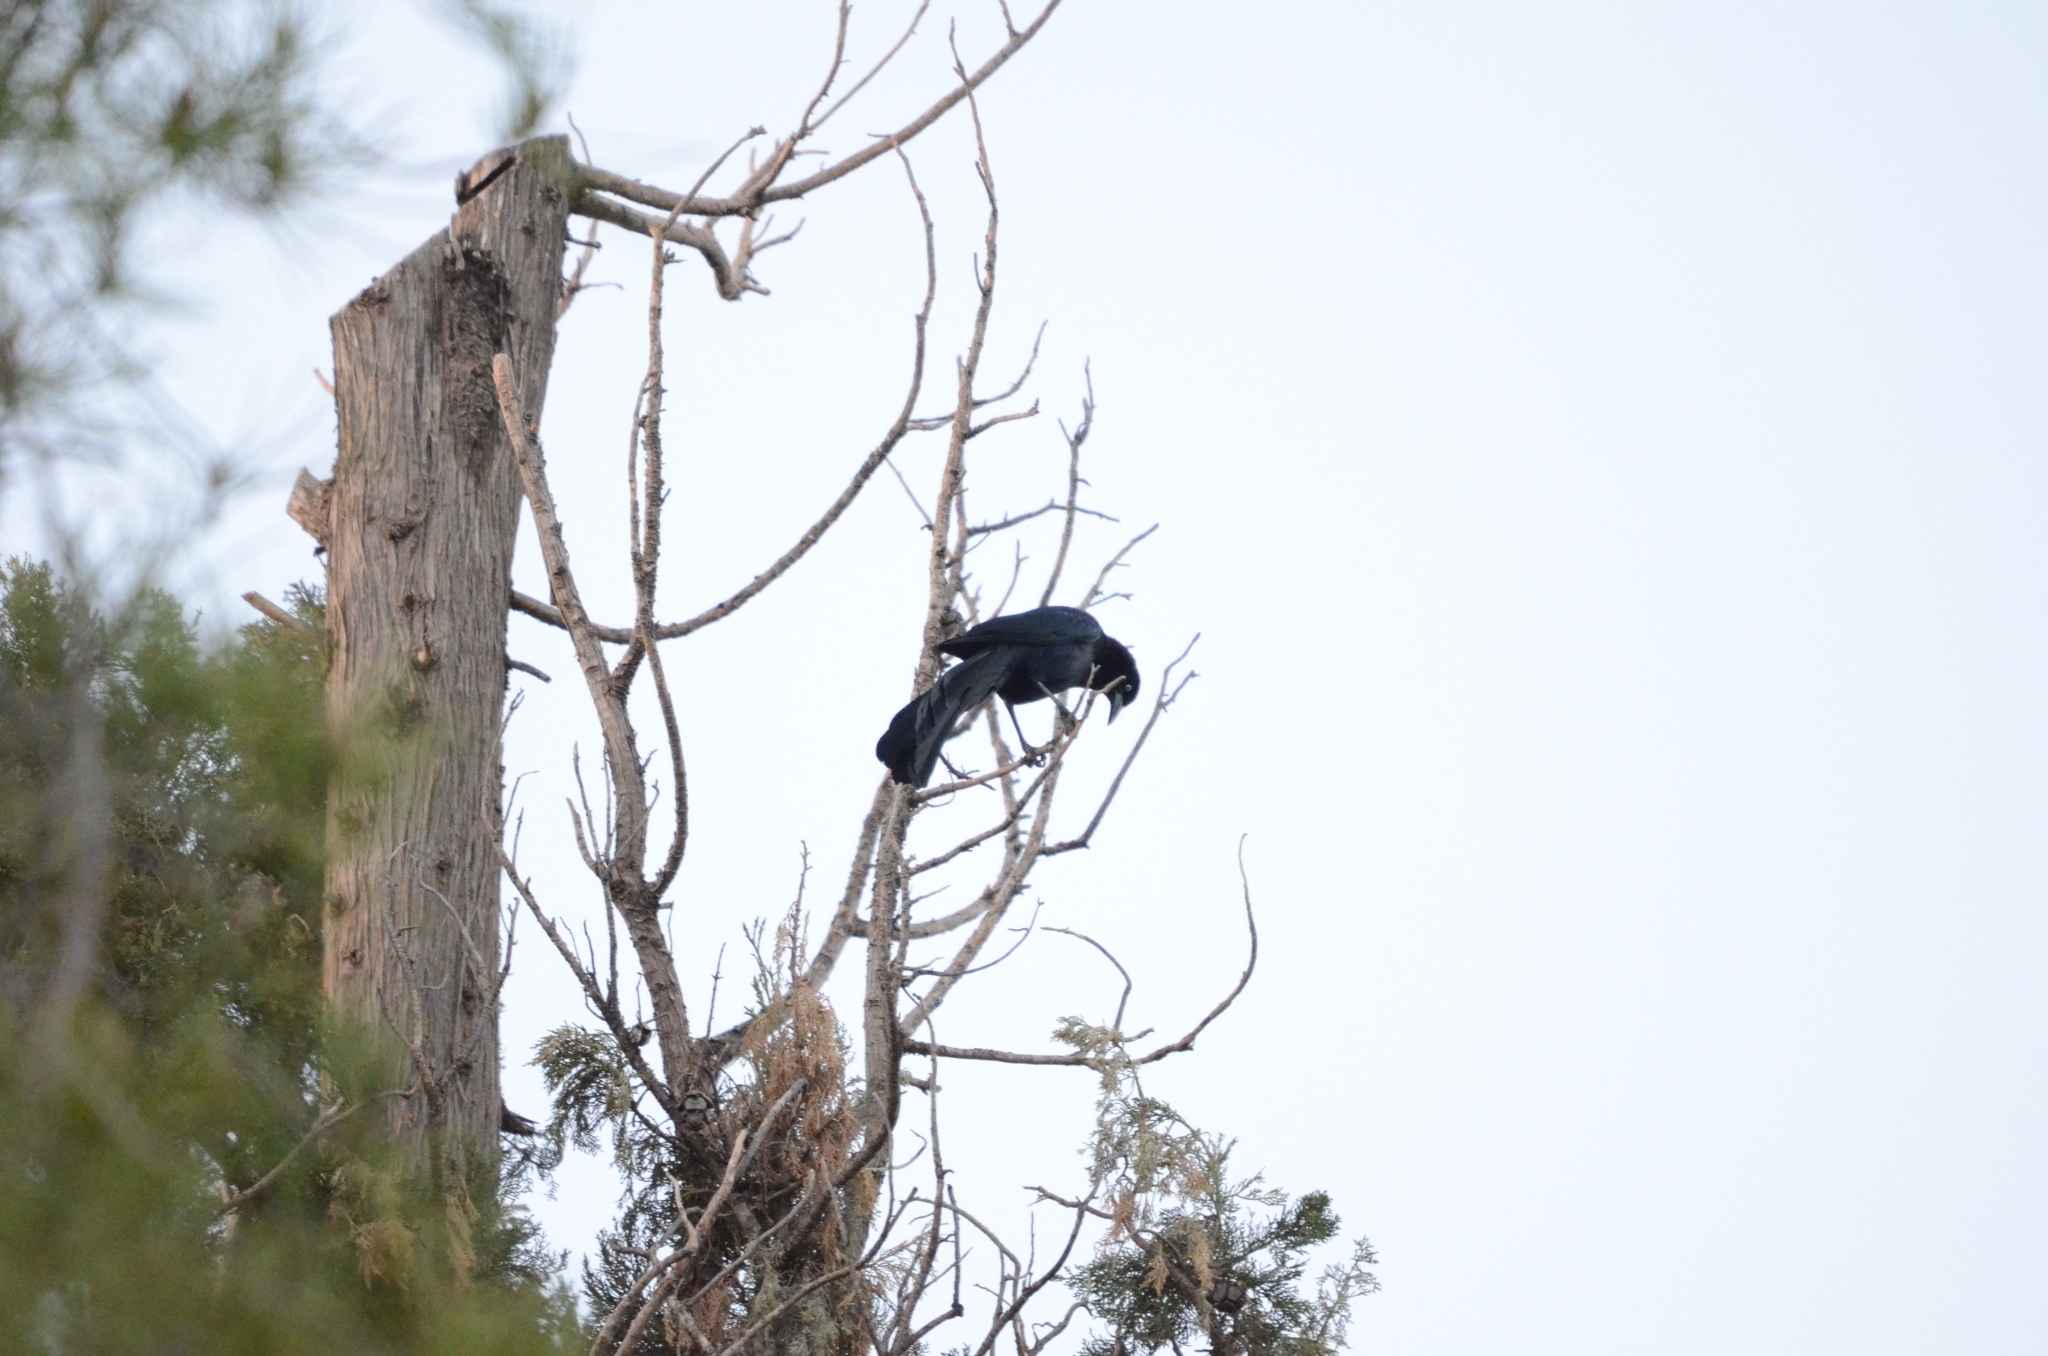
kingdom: Animalia
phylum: Chordata
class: Aves
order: Passeriformes
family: Icteridae
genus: Quiscalus
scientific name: Quiscalus mexicanus
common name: Great-tailed grackle
